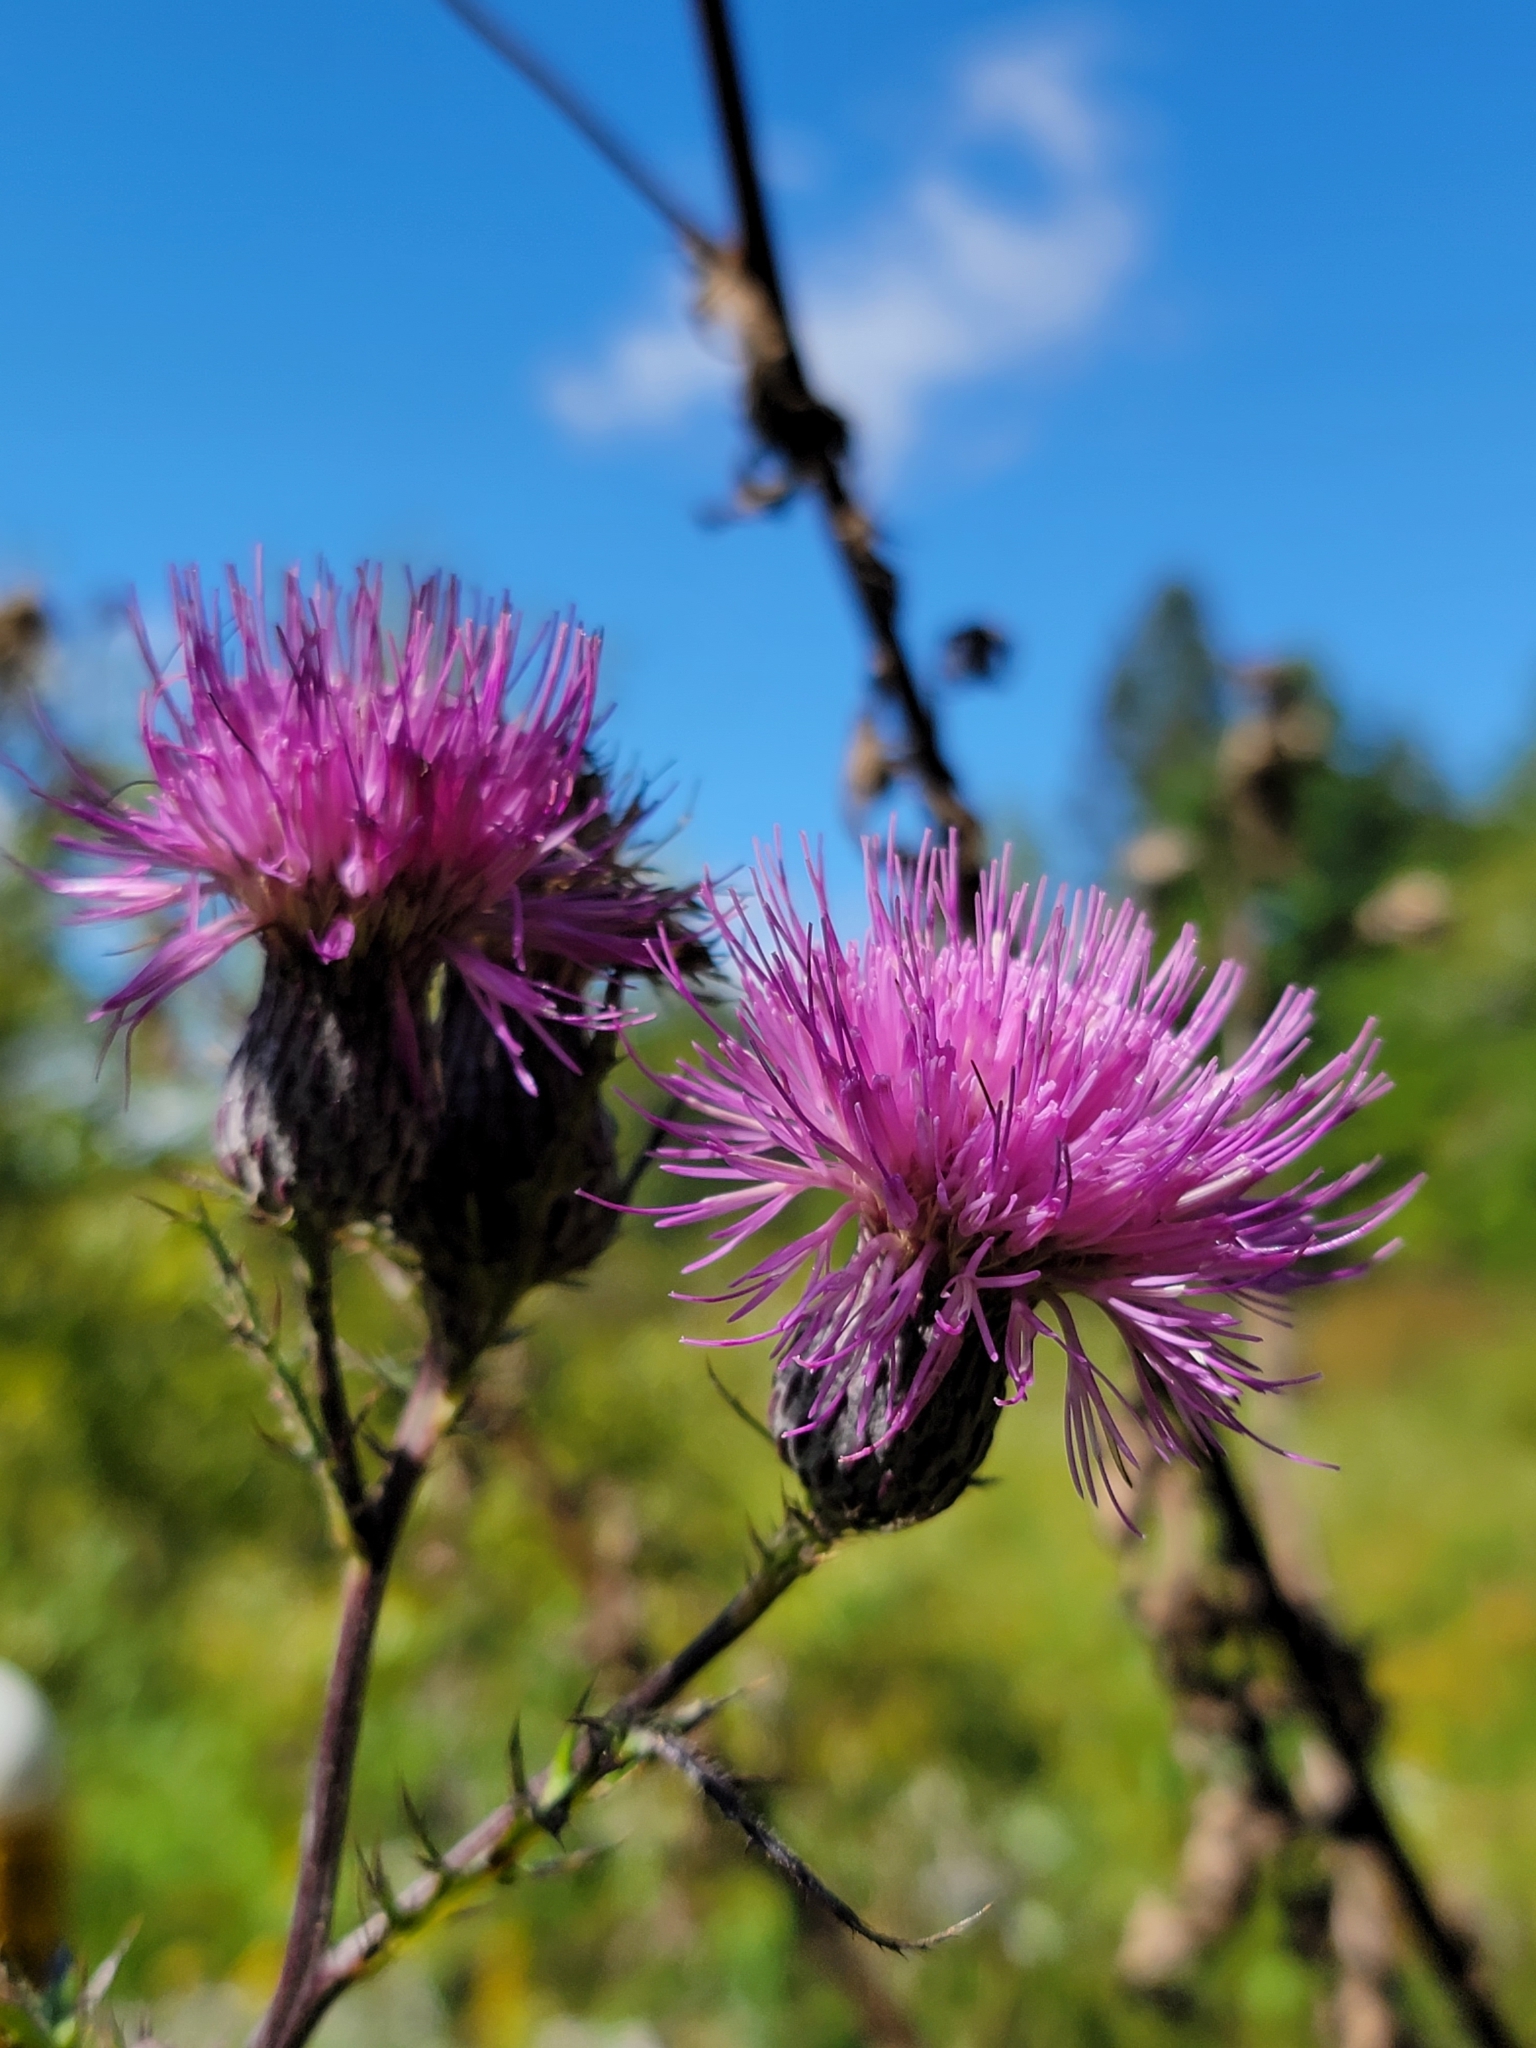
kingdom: Plantae
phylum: Tracheophyta
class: Magnoliopsida
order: Asterales
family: Asteraceae
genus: Cirsium
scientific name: Cirsium muticum
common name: Dunce-nettle
